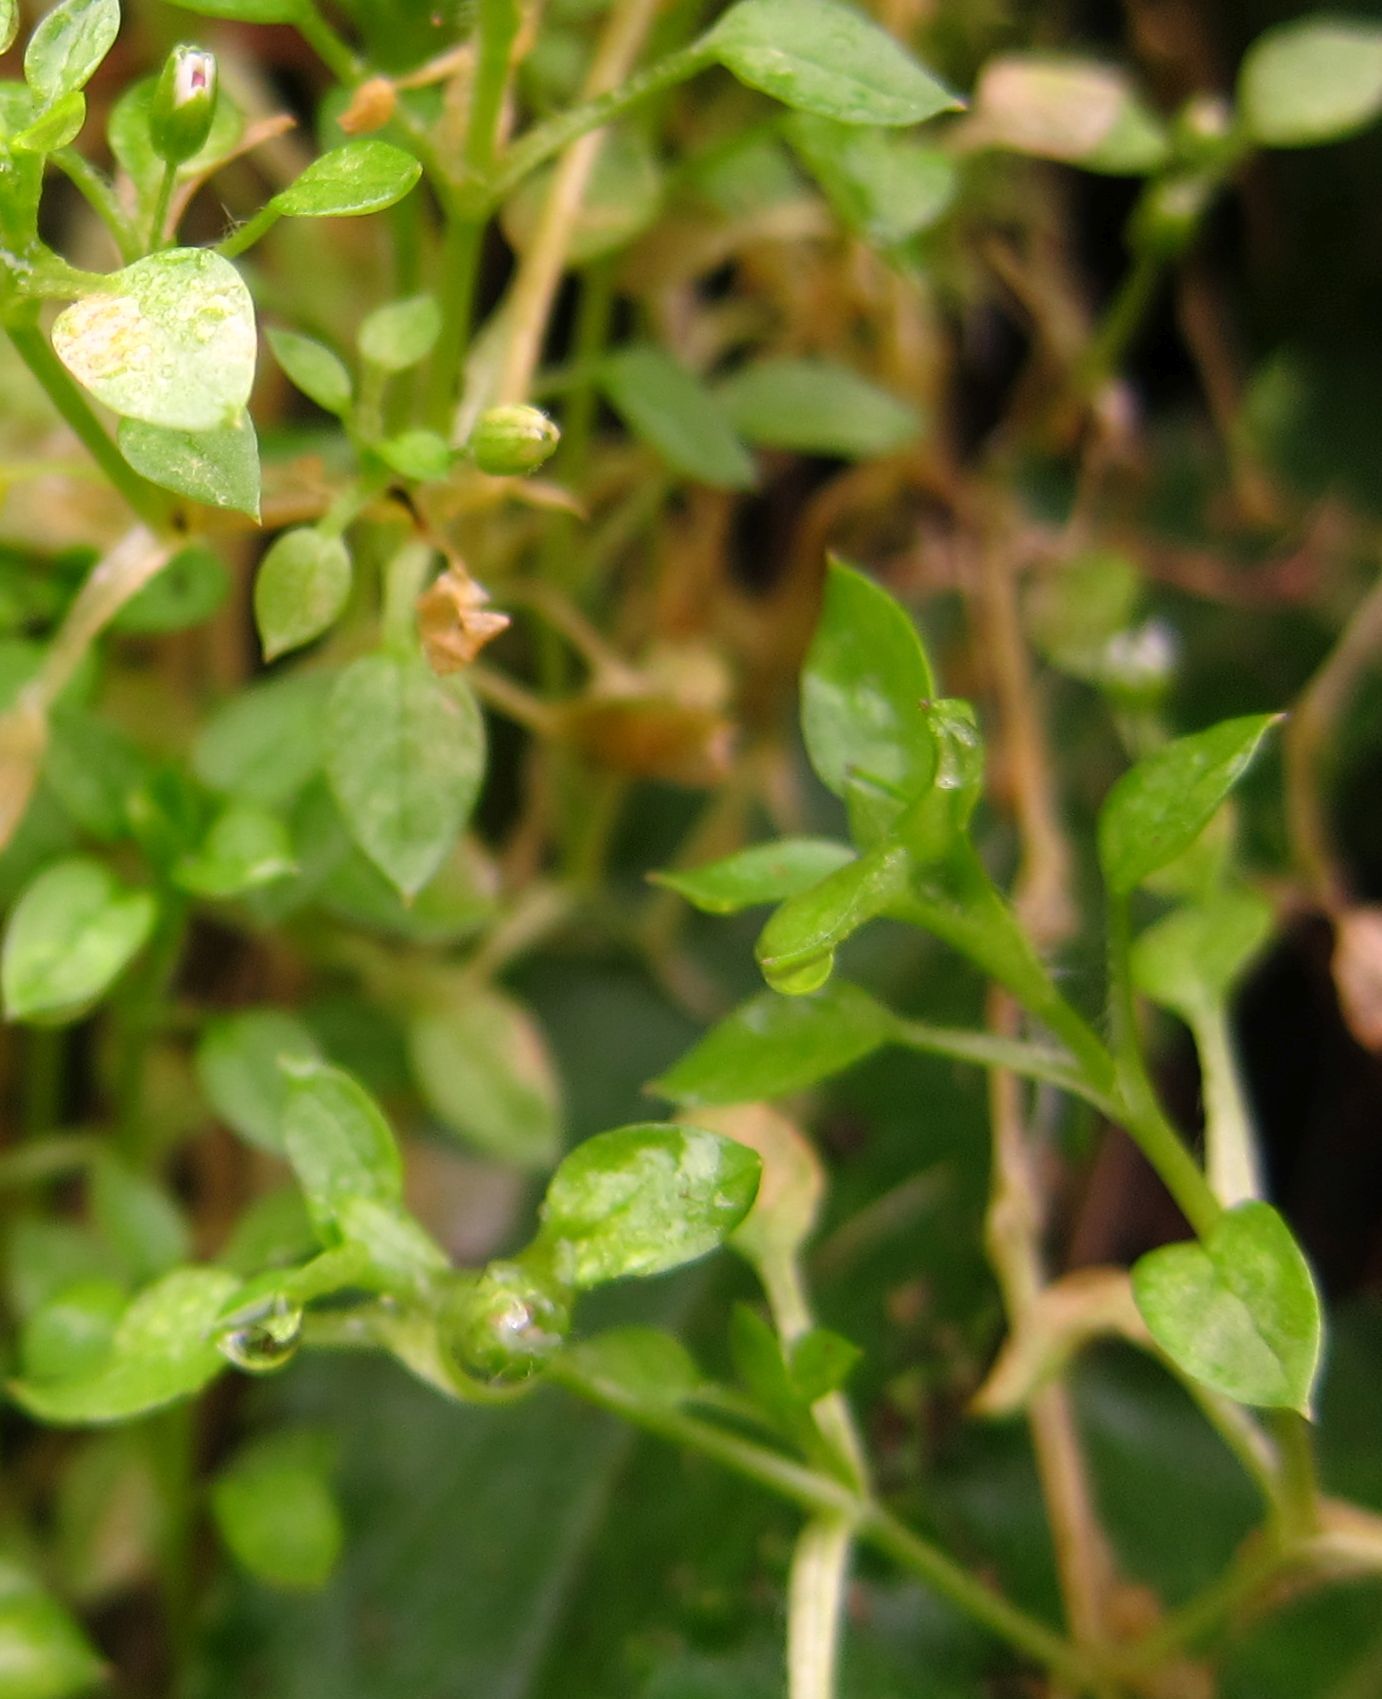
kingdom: Plantae
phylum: Tracheophyta
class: Magnoliopsida
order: Caryophyllales
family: Caryophyllaceae
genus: Stellaria
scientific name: Stellaria media
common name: Common chickweed
